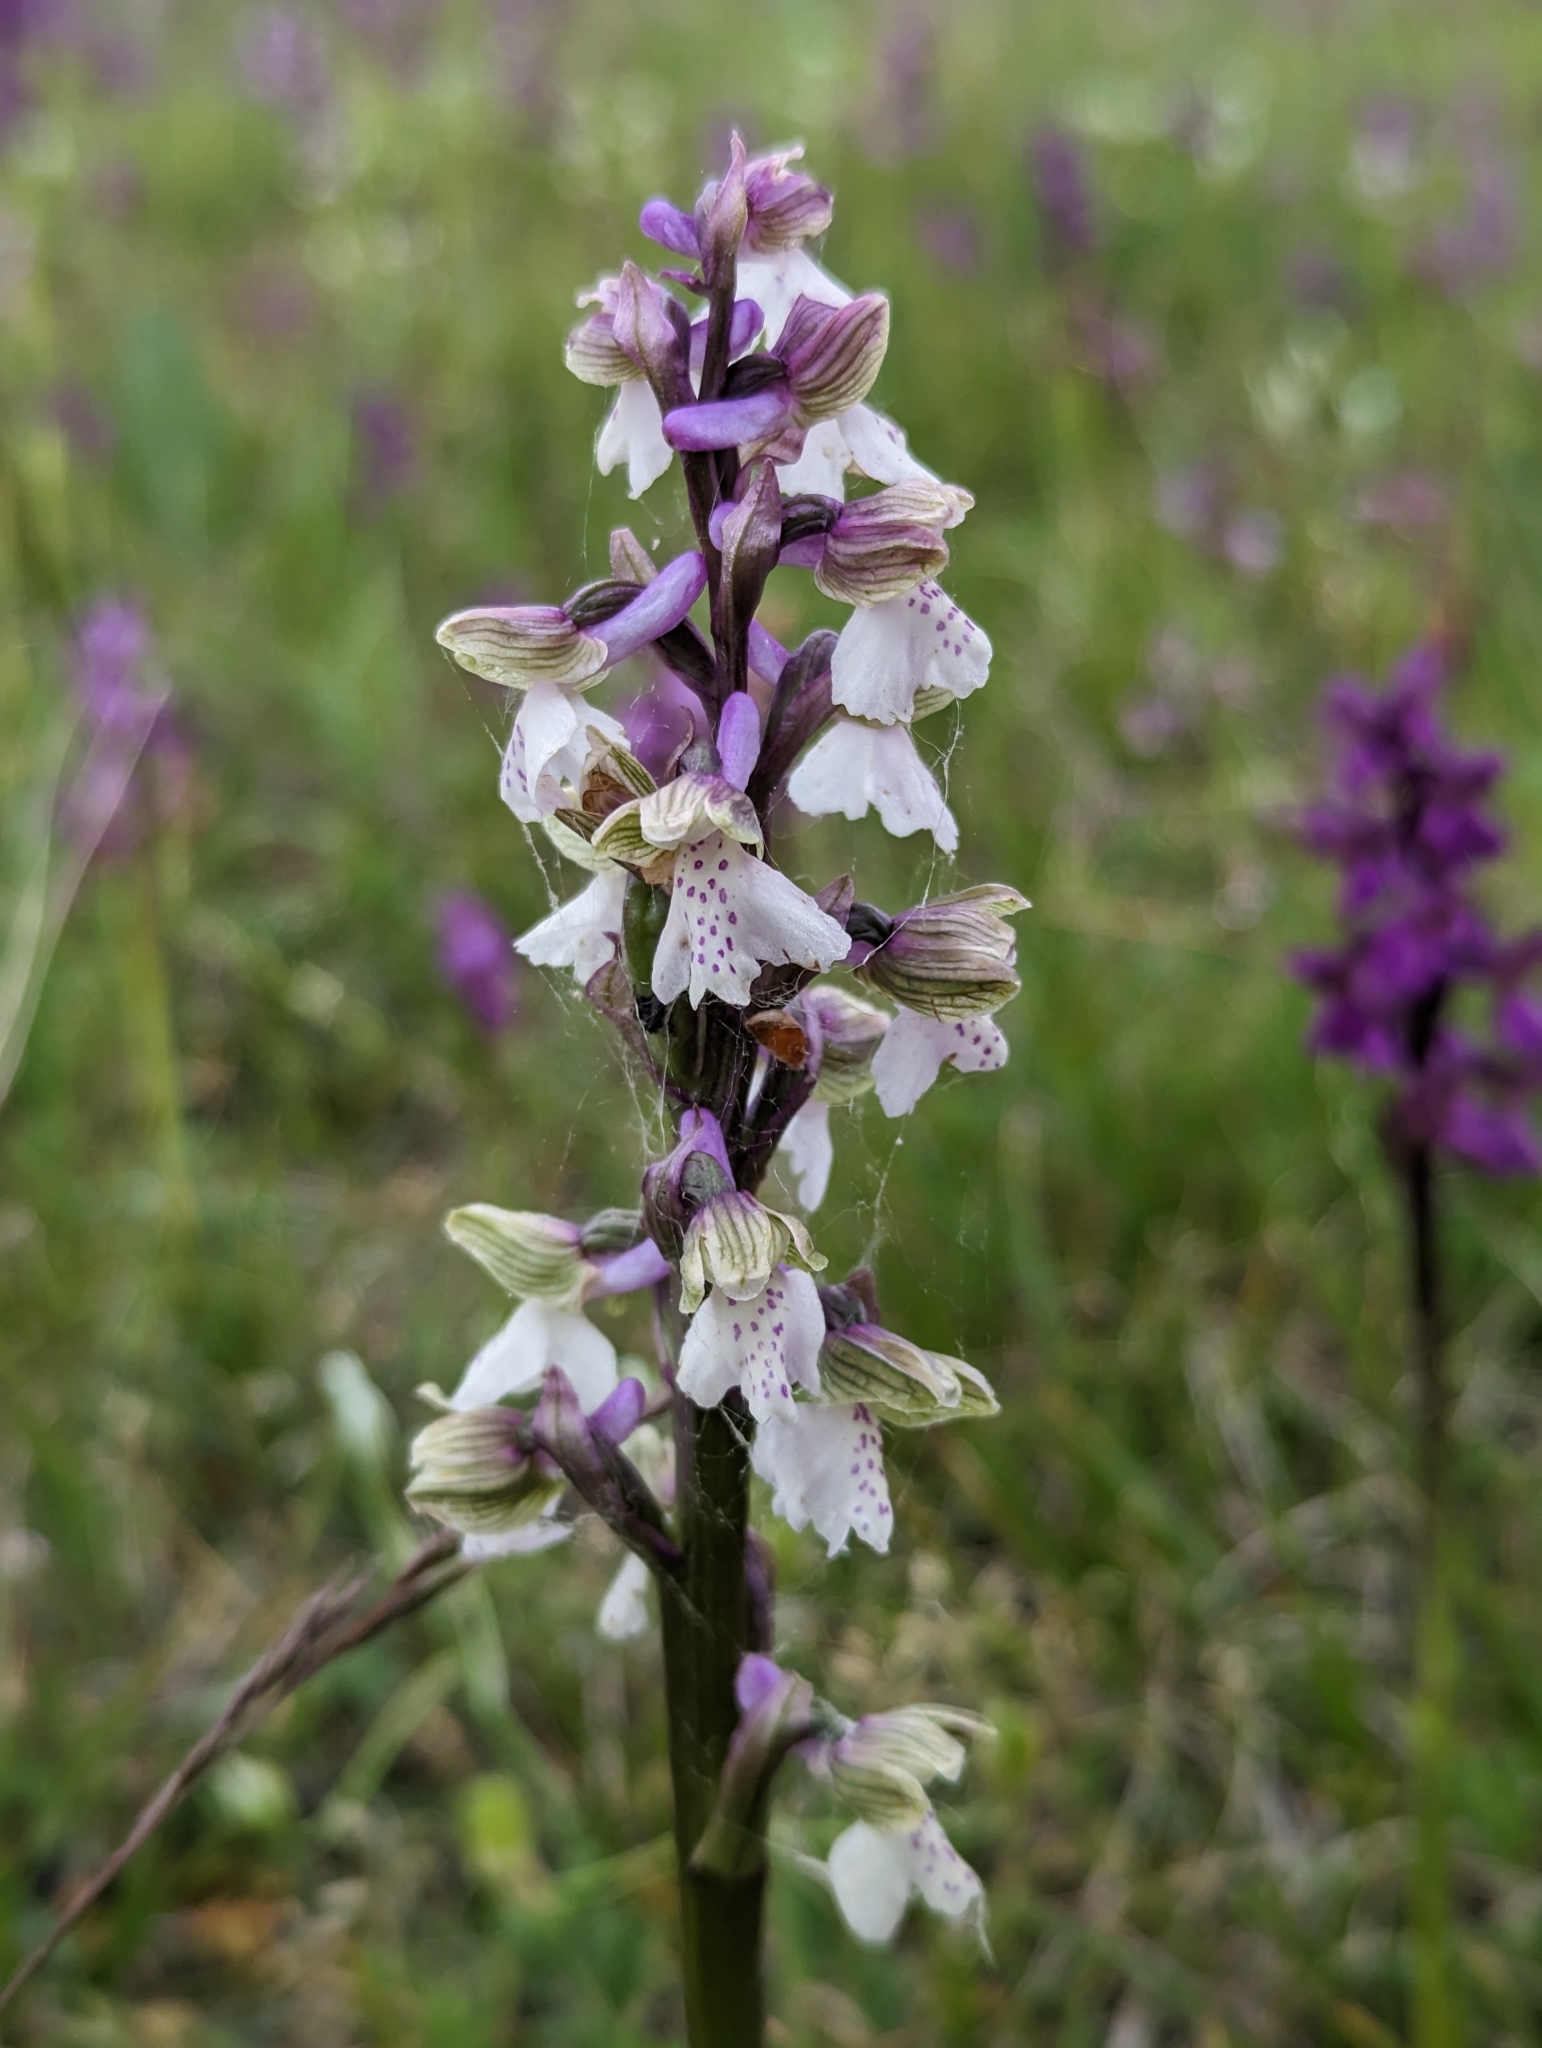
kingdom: Plantae
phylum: Tracheophyta
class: Liliopsida
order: Asparagales
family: Orchidaceae
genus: Anacamptis
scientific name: Anacamptis morio
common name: Green-winged orchid
